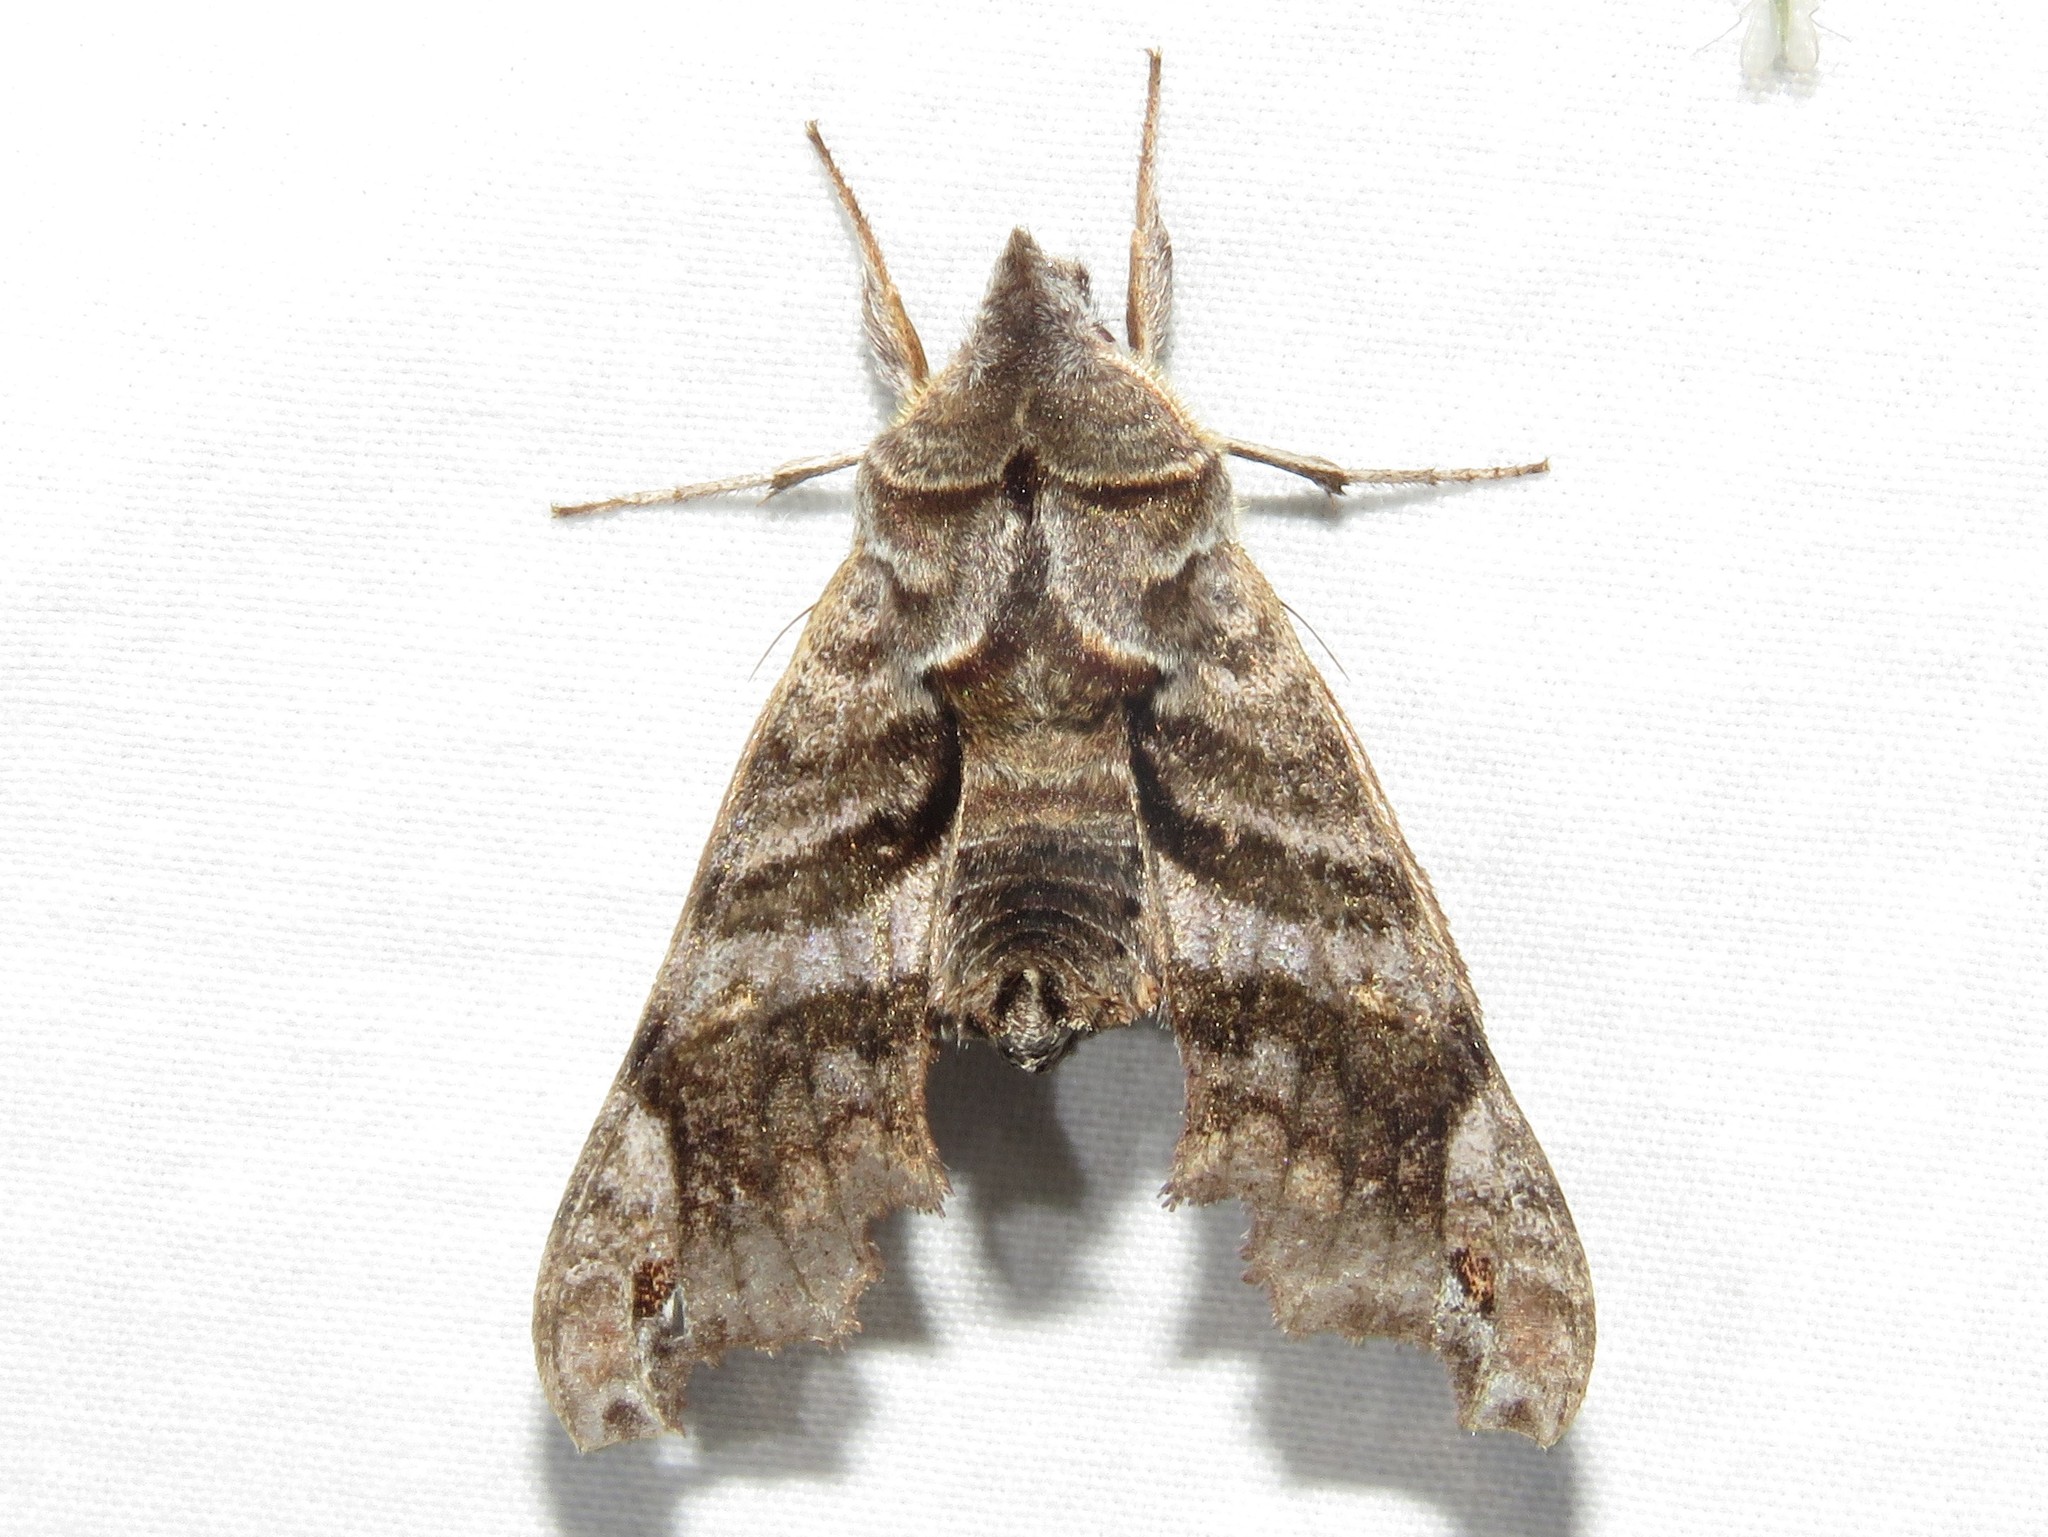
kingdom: Animalia
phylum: Arthropoda
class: Insecta
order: Lepidoptera
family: Sphingidae
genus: Deidamia
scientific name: Deidamia inscriptum
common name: Lettered sphinx
